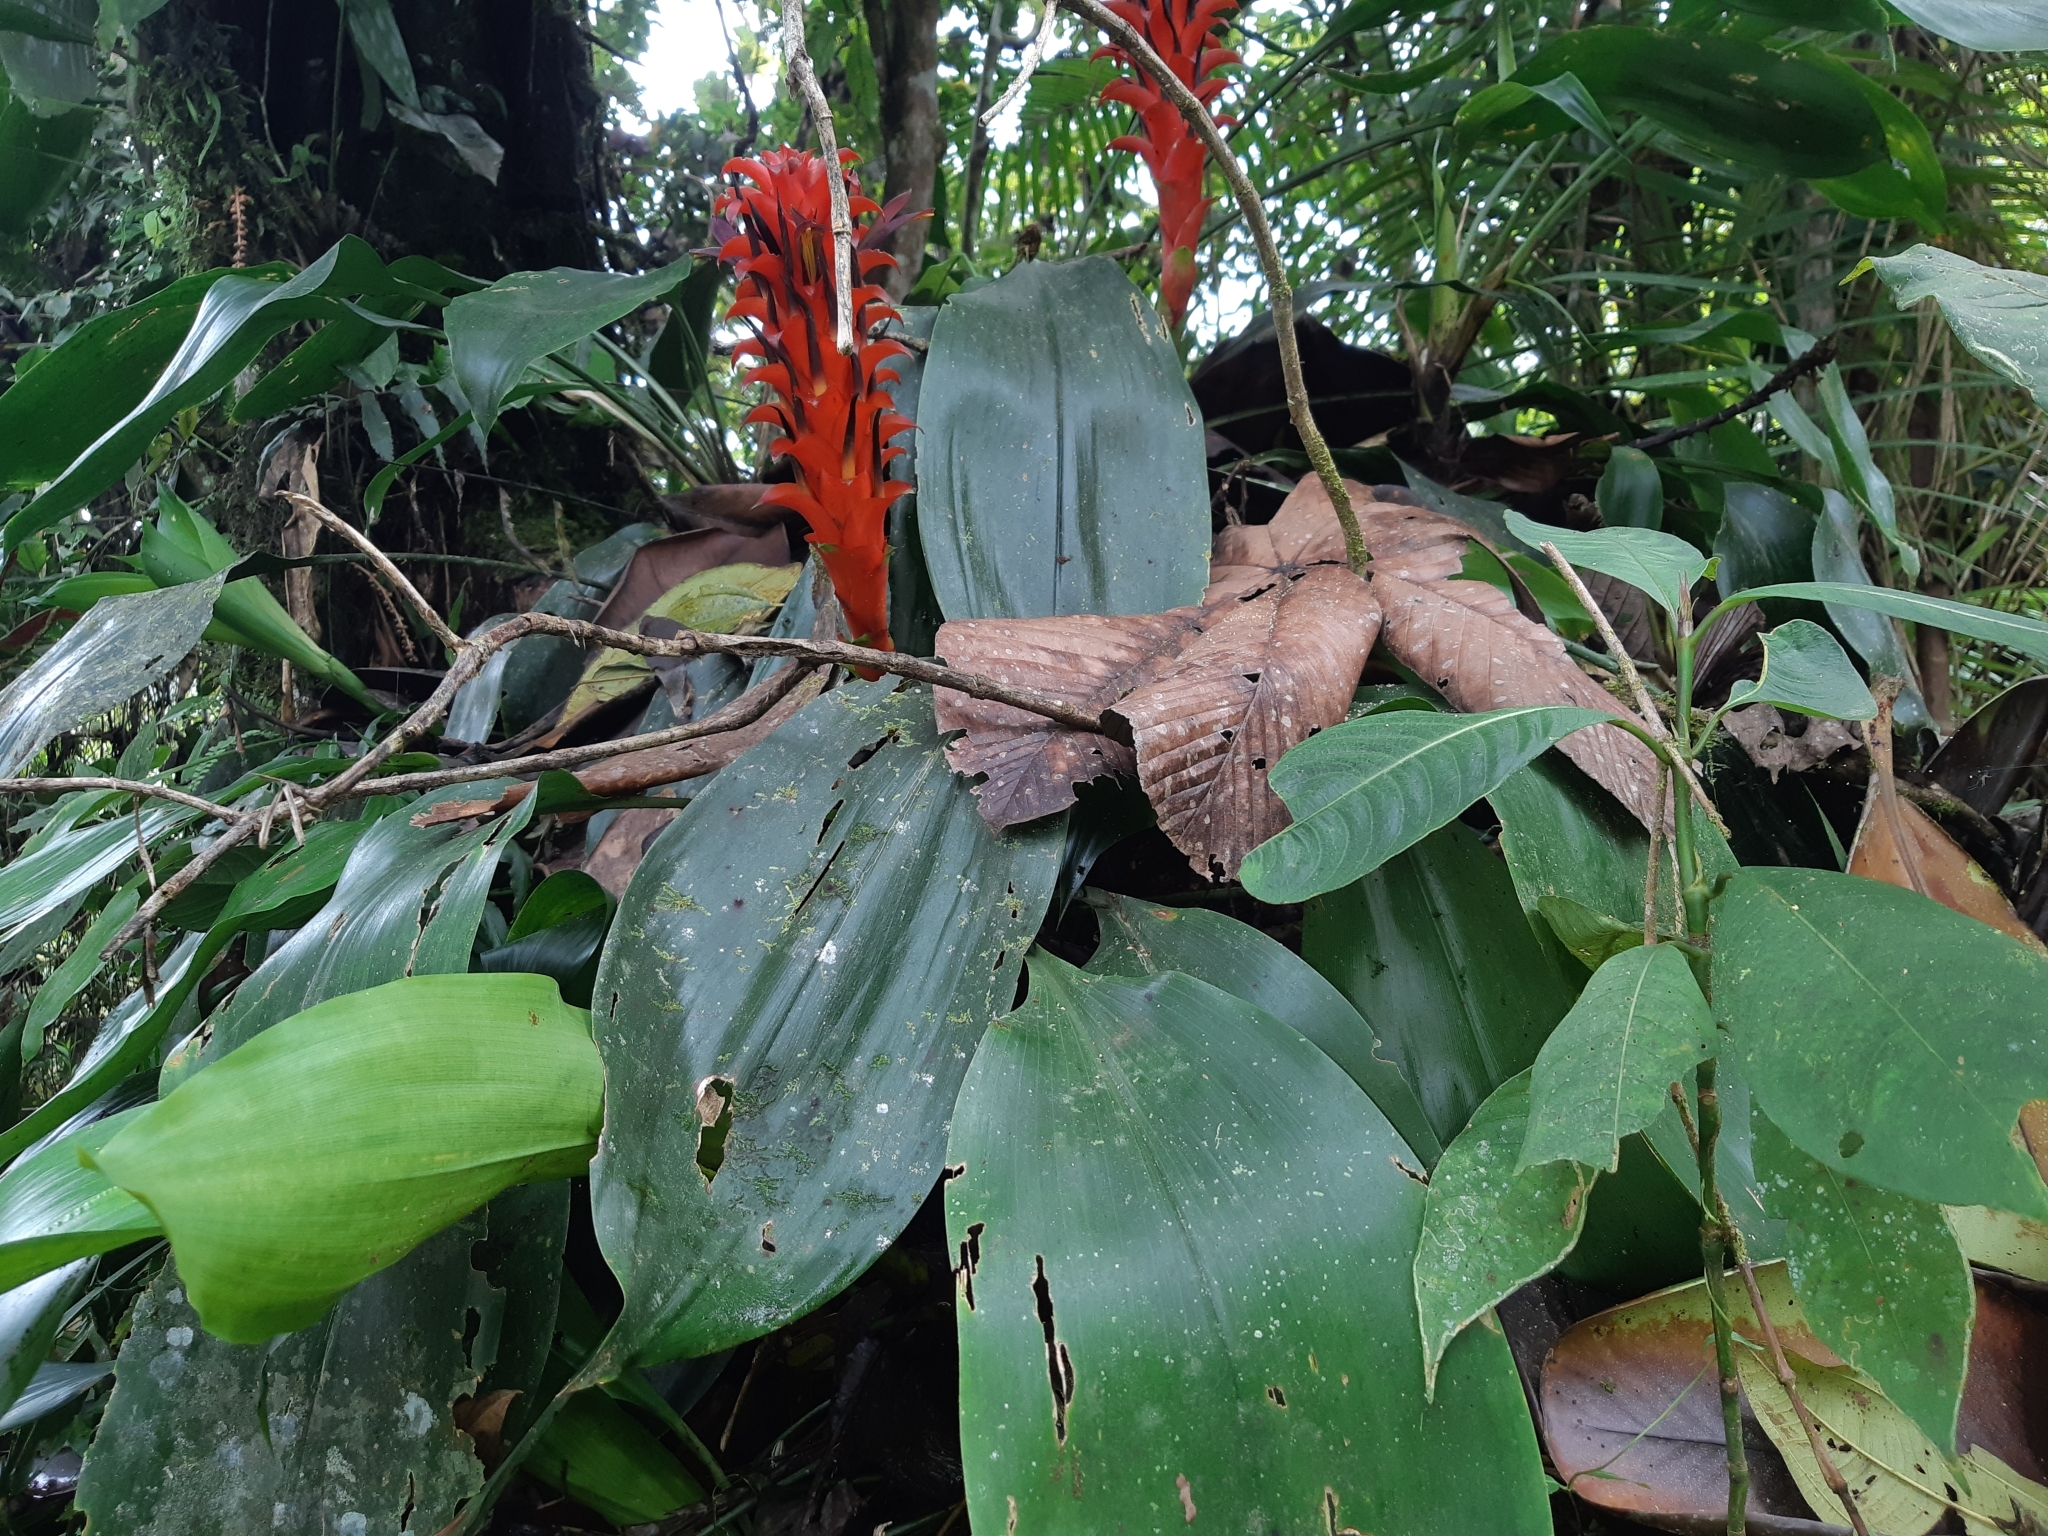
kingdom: Plantae
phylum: Tracheophyta
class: Liliopsida
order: Poales
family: Bromeliaceae
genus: Pitcairnia
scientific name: Pitcairnia nigra
